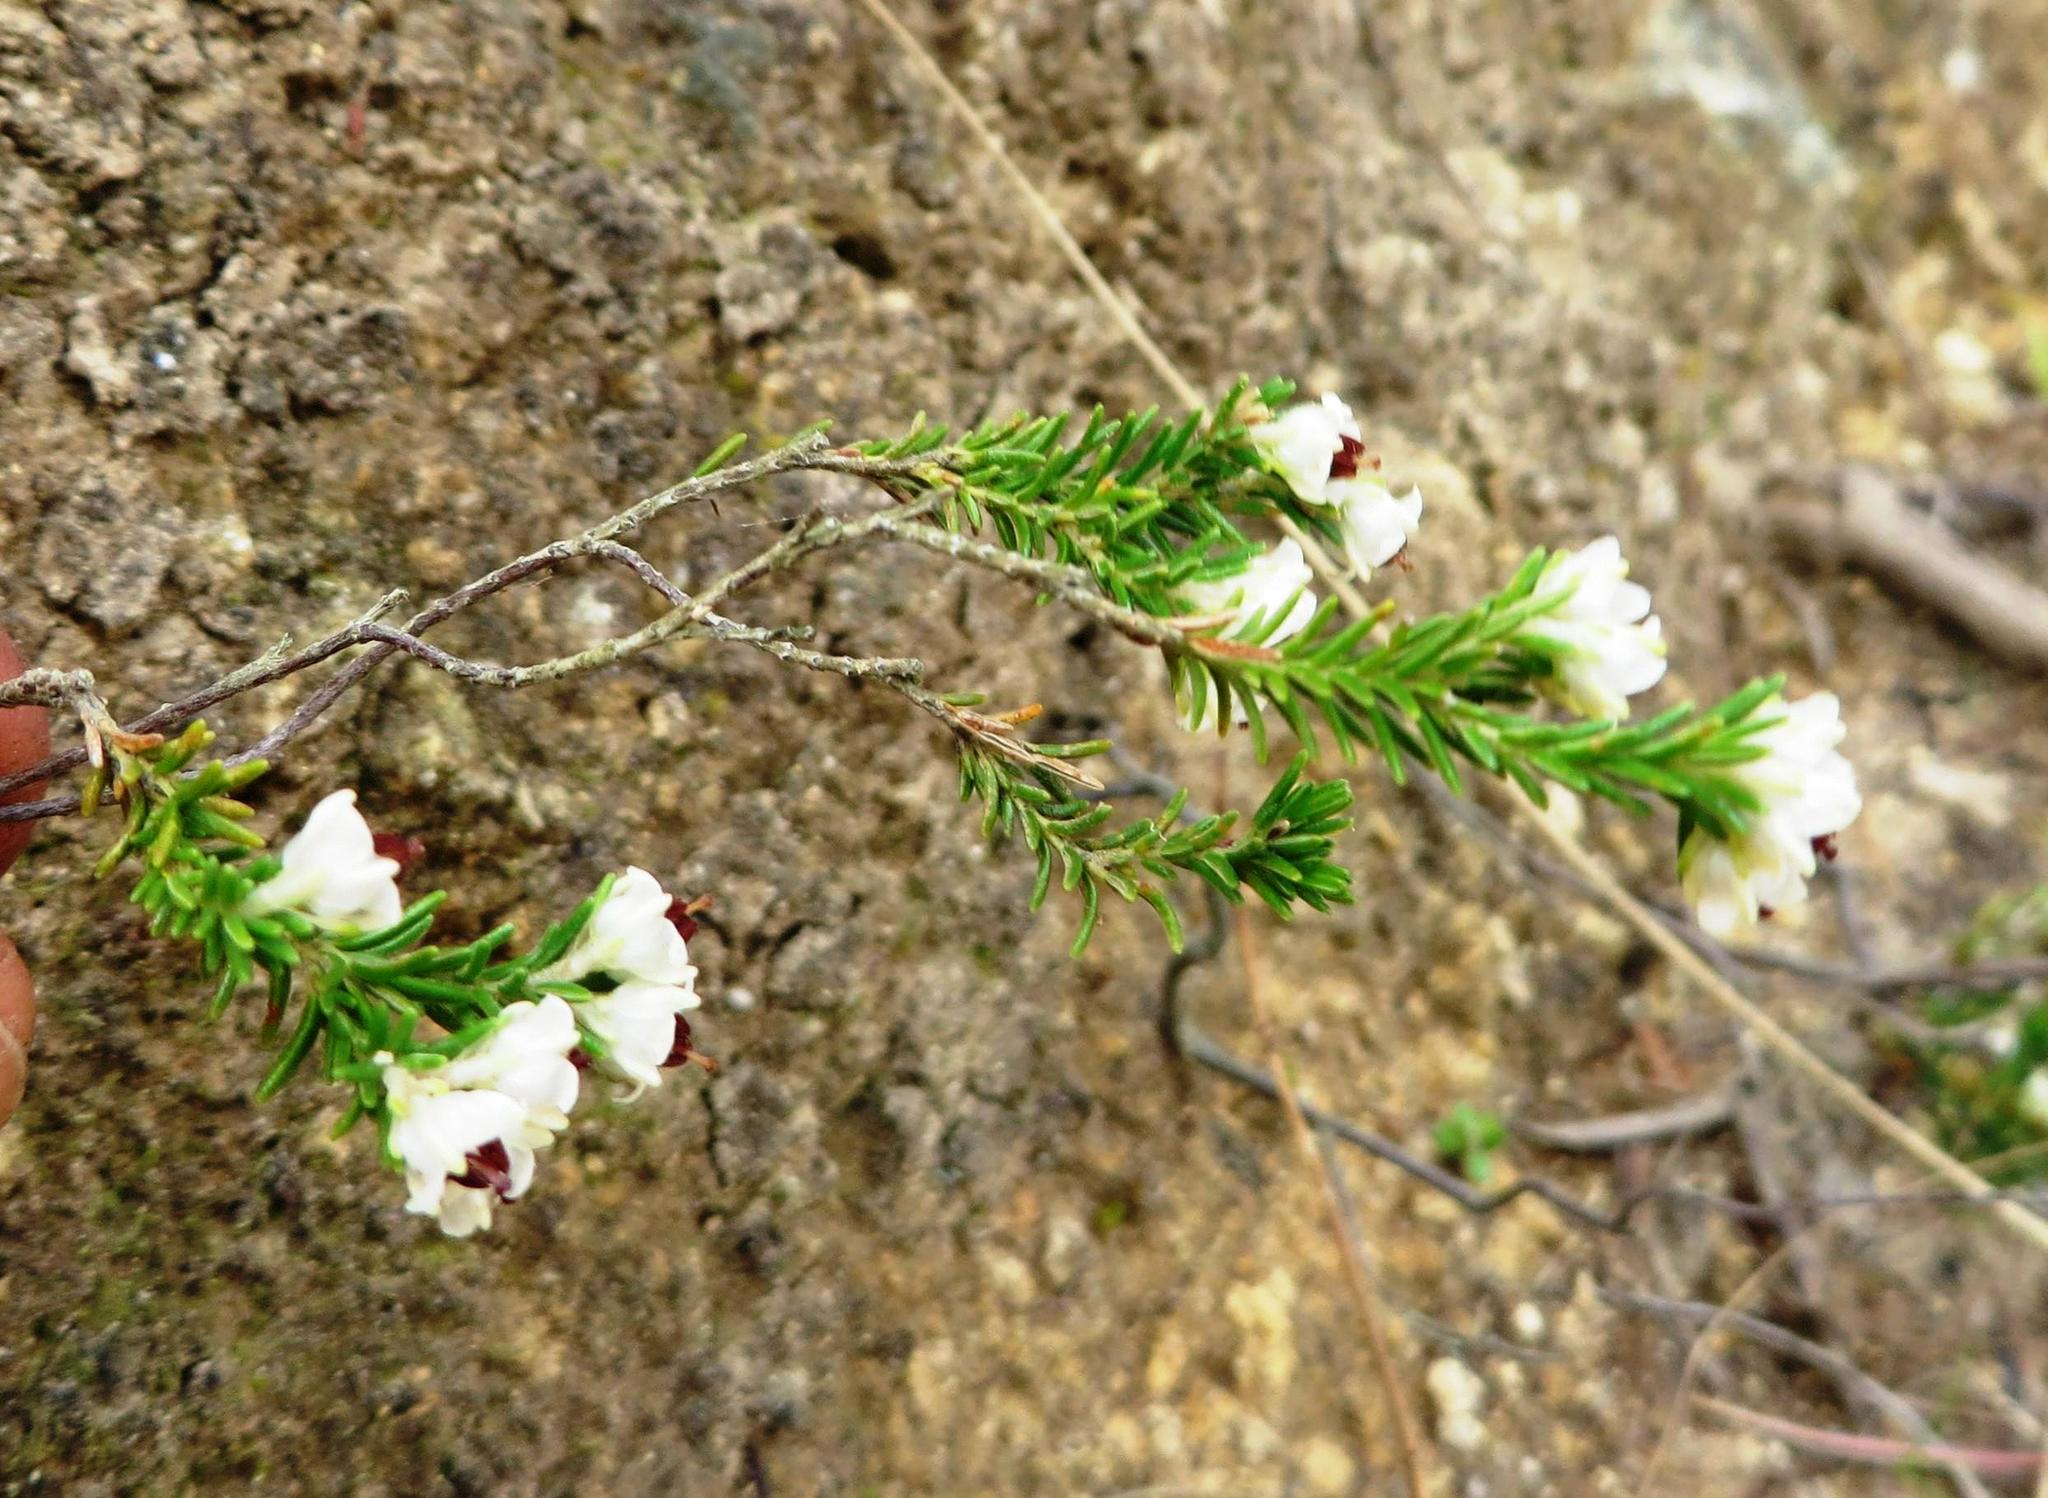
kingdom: Plantae
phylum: Tracheophyta
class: Magnoliopsida
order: Ericales
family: Ericaceae
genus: Erica
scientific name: Erica calycina
